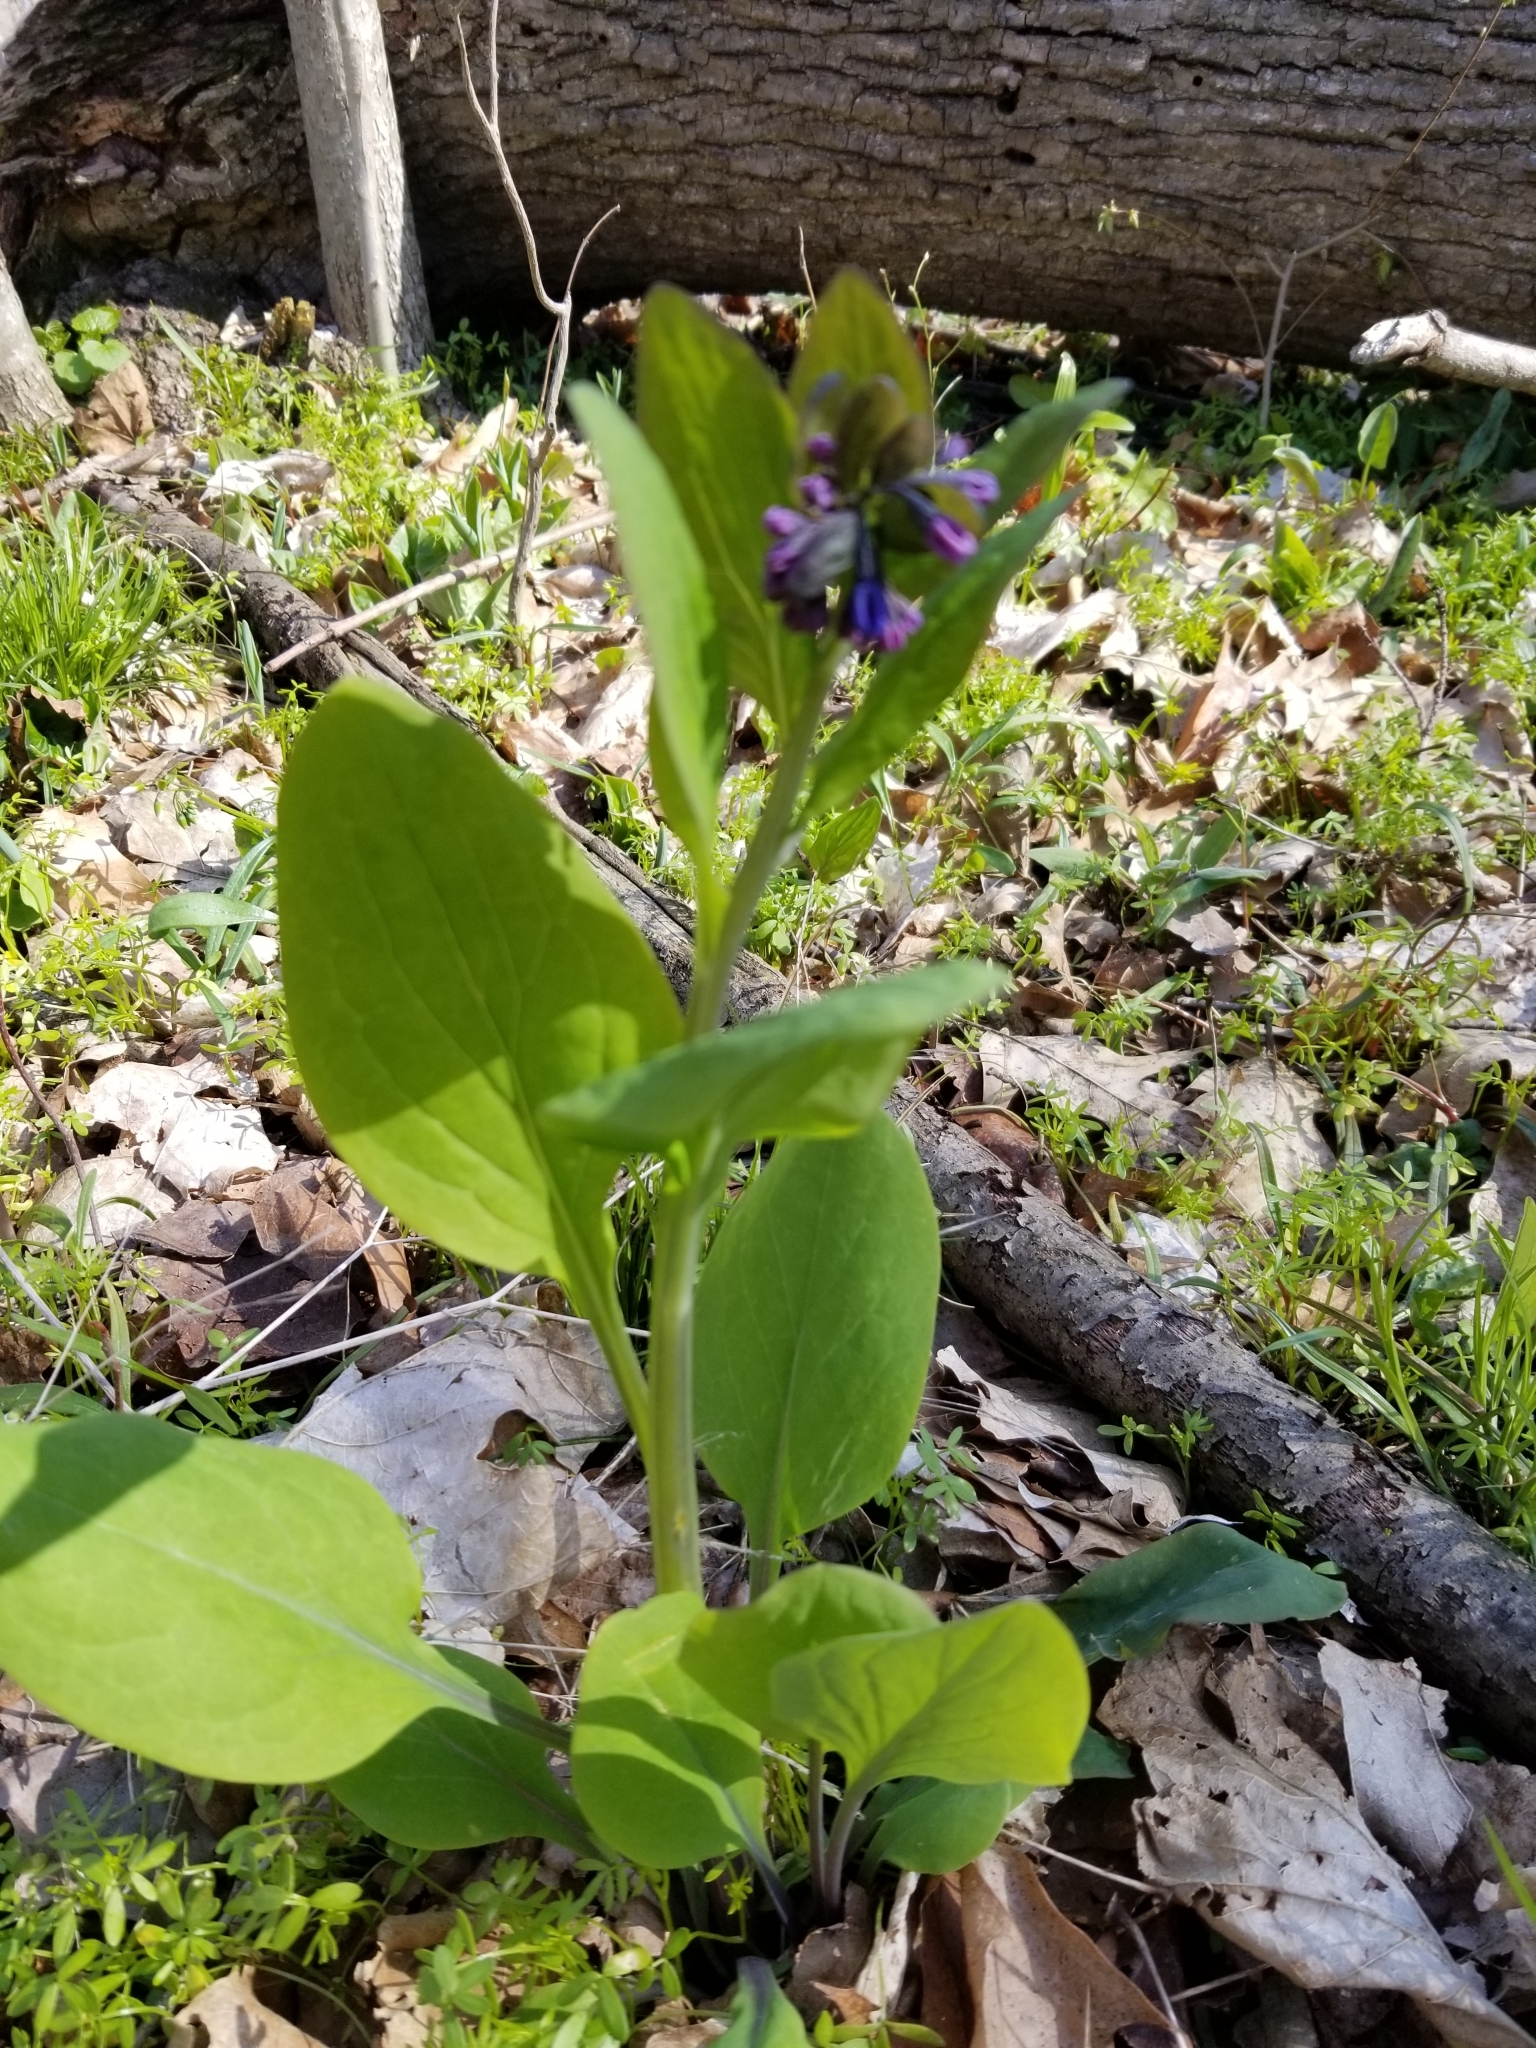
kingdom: Plantae
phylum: Tracheophyta
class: Magnoliopsida
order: Boraginales
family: Boraginaceae
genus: Mertensia
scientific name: Mertensia virginica
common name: Virginia bluebells
